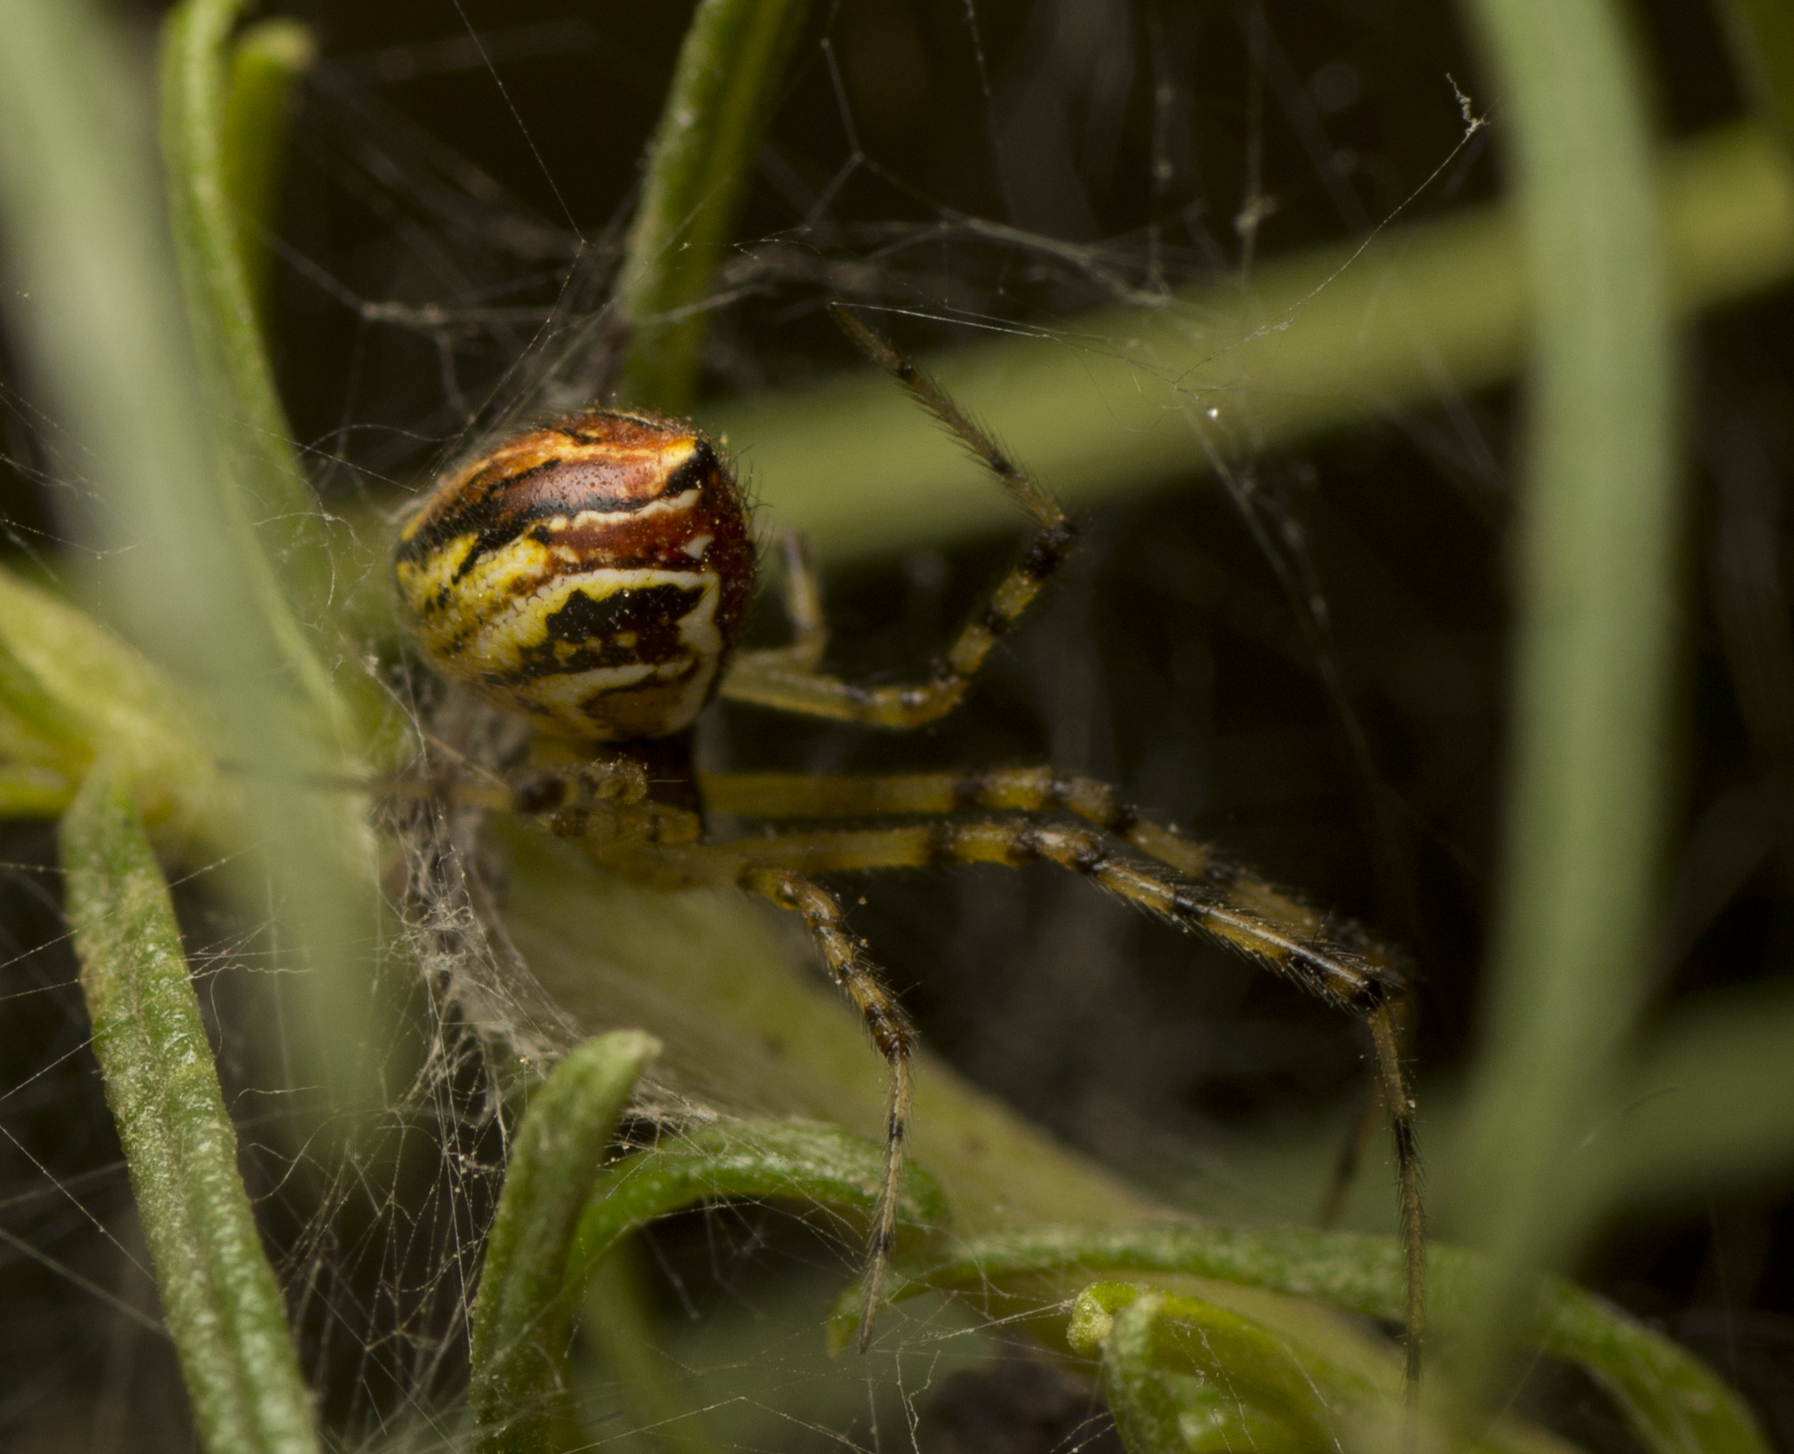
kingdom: Animalia
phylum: Arthropoda
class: Arachnida
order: Araneae
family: Theridiidae
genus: Theridion
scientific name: Theridion pyramidale
